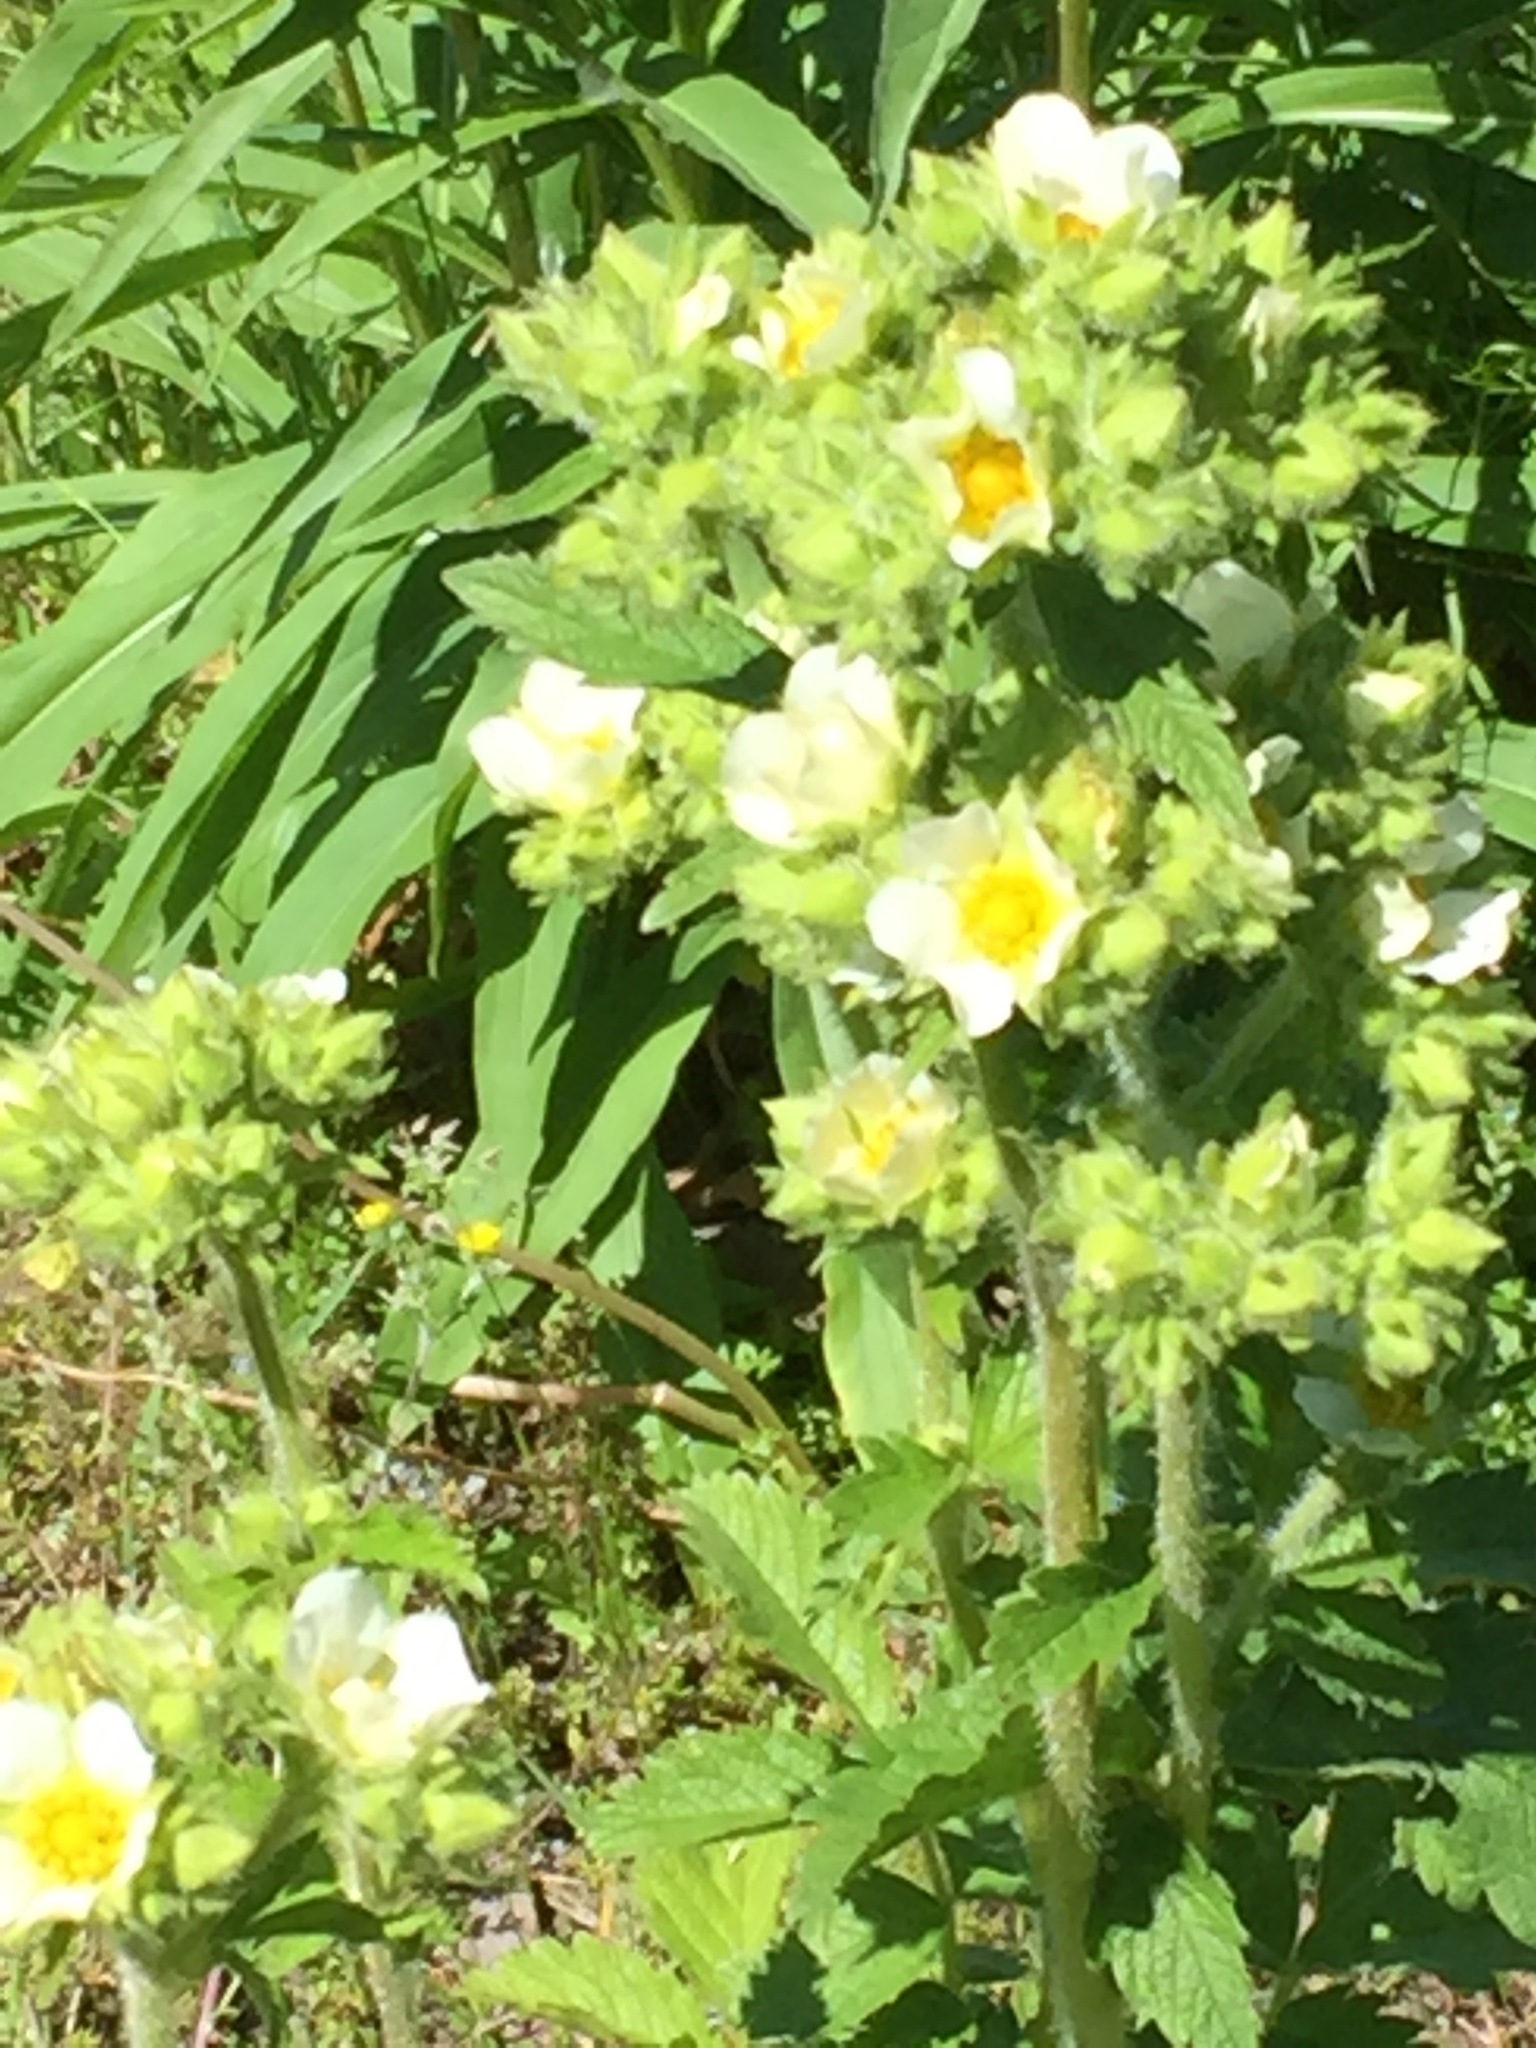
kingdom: Plantae
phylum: Tracheophyta
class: Magnoliopsida
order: Rosales
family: Rosaceae
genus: Drymocallis
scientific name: Drymocallis arguta
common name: Tall cinquefoil
